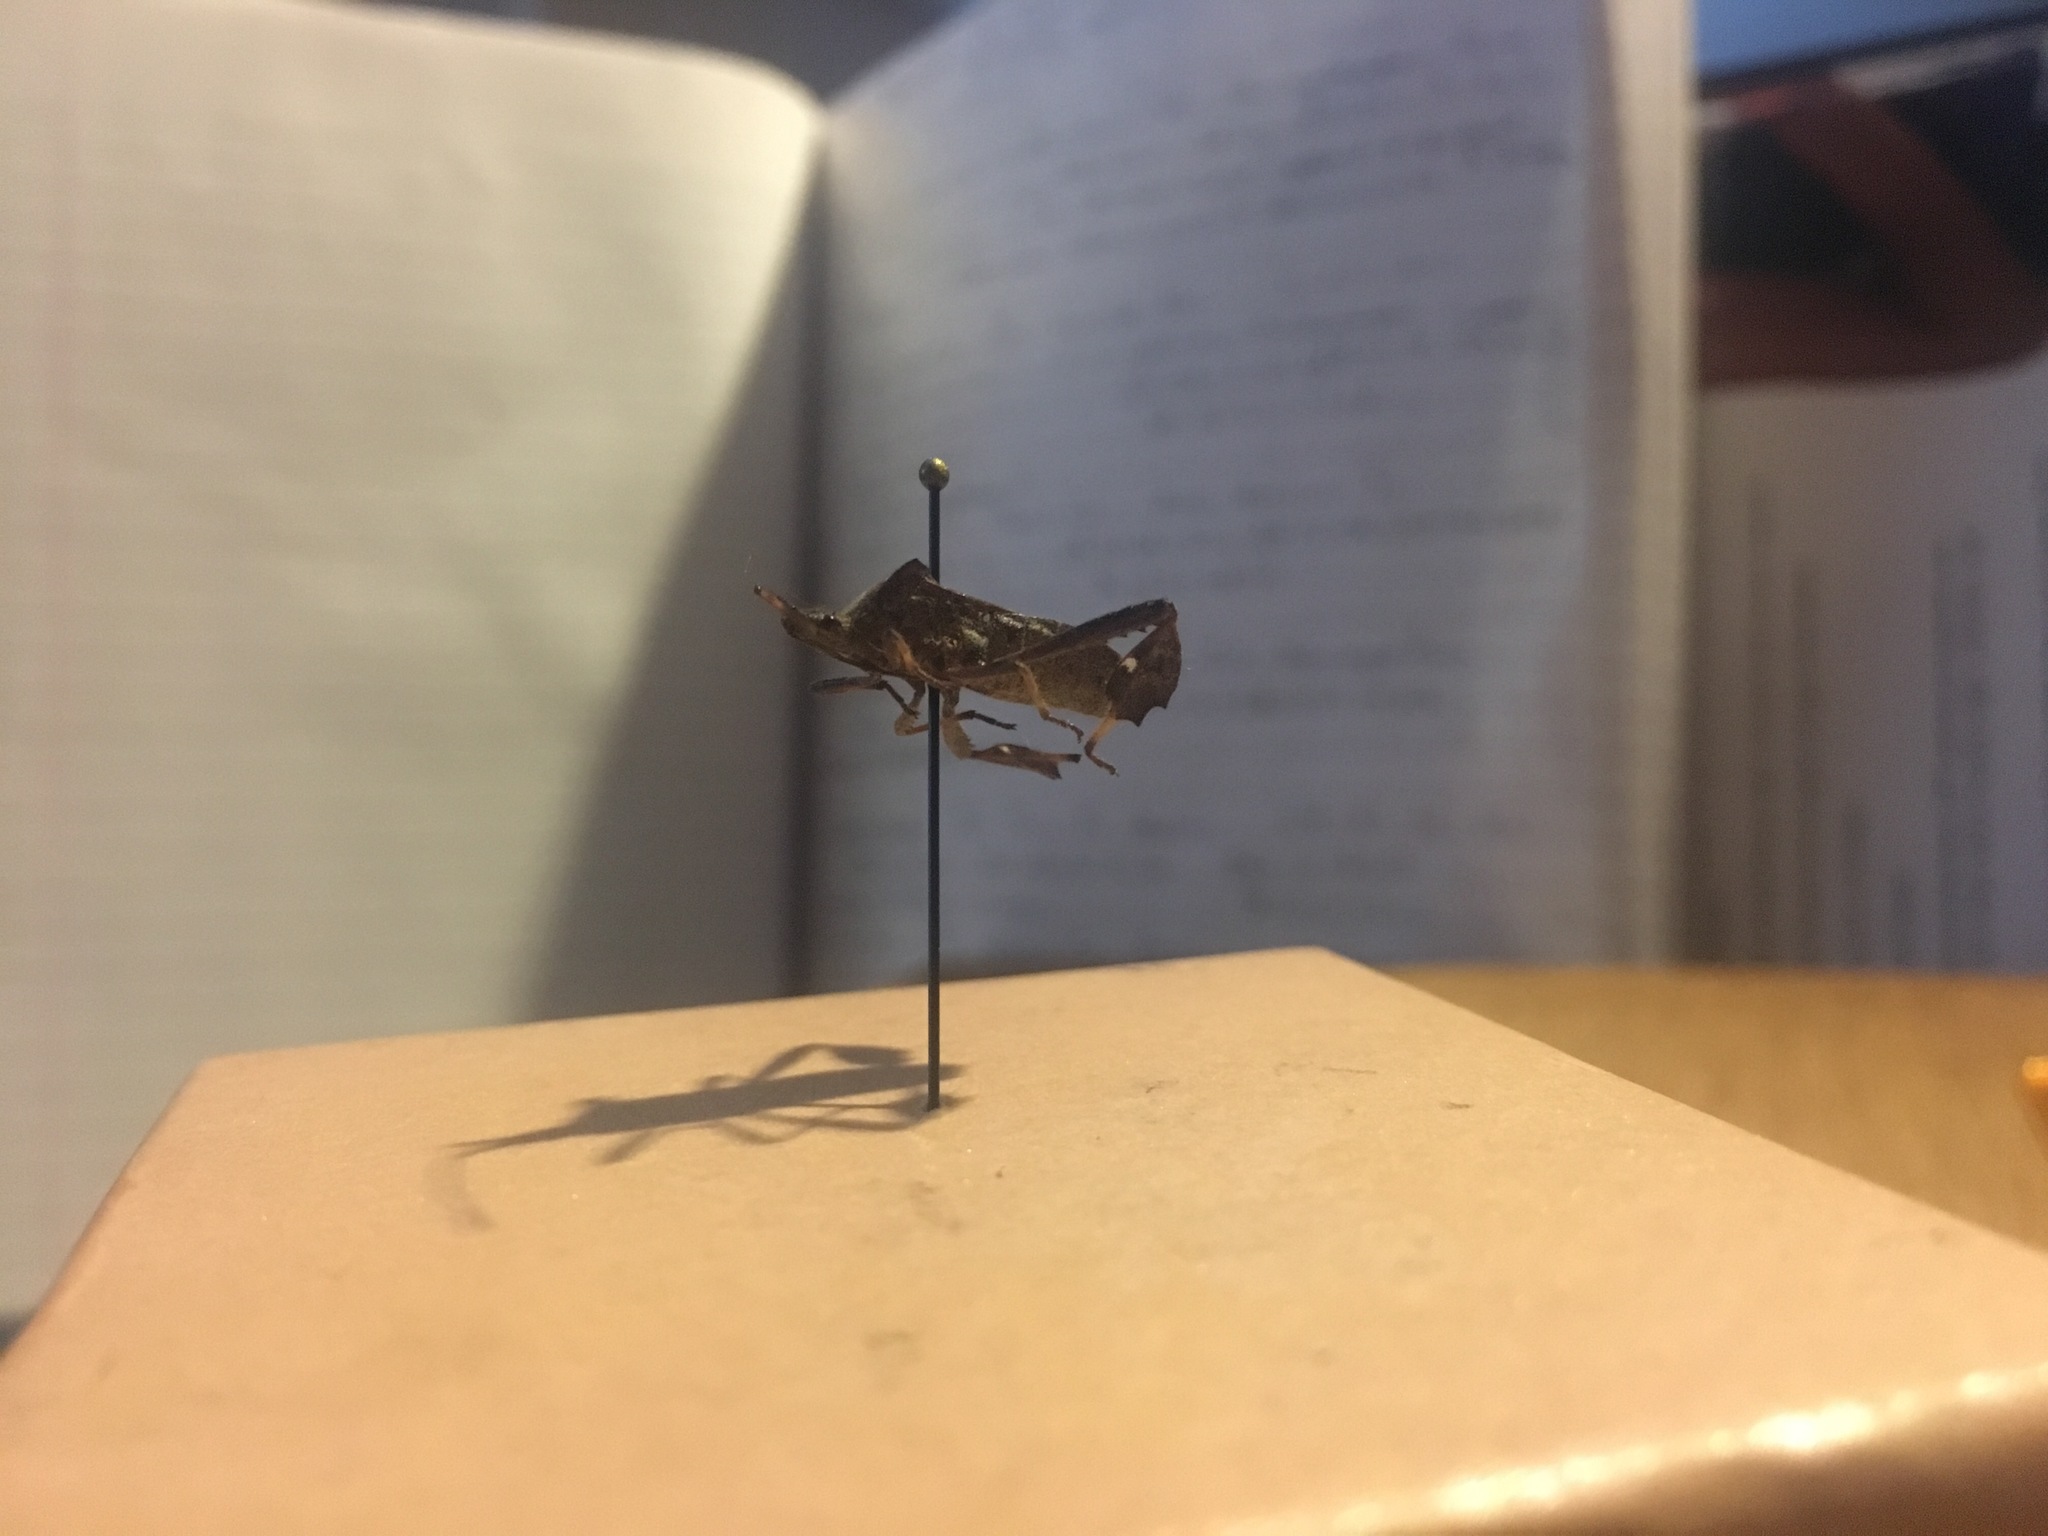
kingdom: Animalia
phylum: Arthropoda
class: Insecta
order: Hemiptera
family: Coreidae
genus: Leptoglossus
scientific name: Leptoglossus phyllopus
